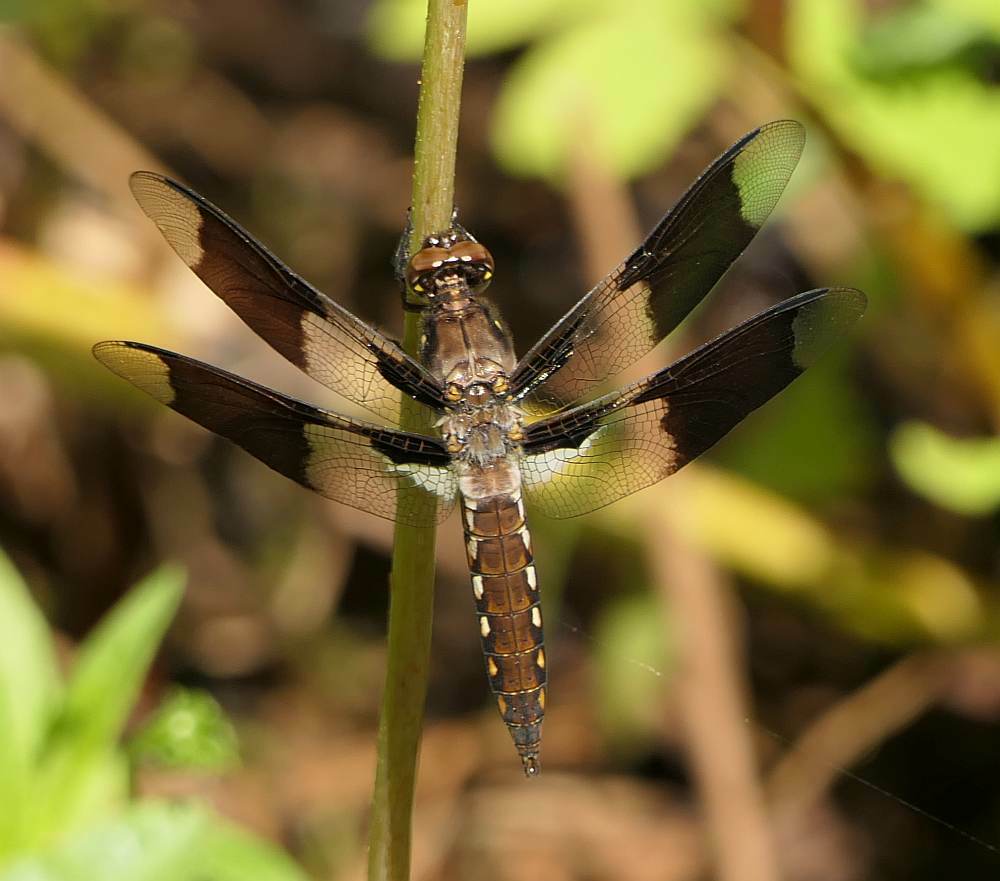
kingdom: Animalia
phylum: Arthropoda
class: Insecta
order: Odonata
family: Libellulidae
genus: Plathemis
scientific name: Plathemis lydia
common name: Common whitetail
